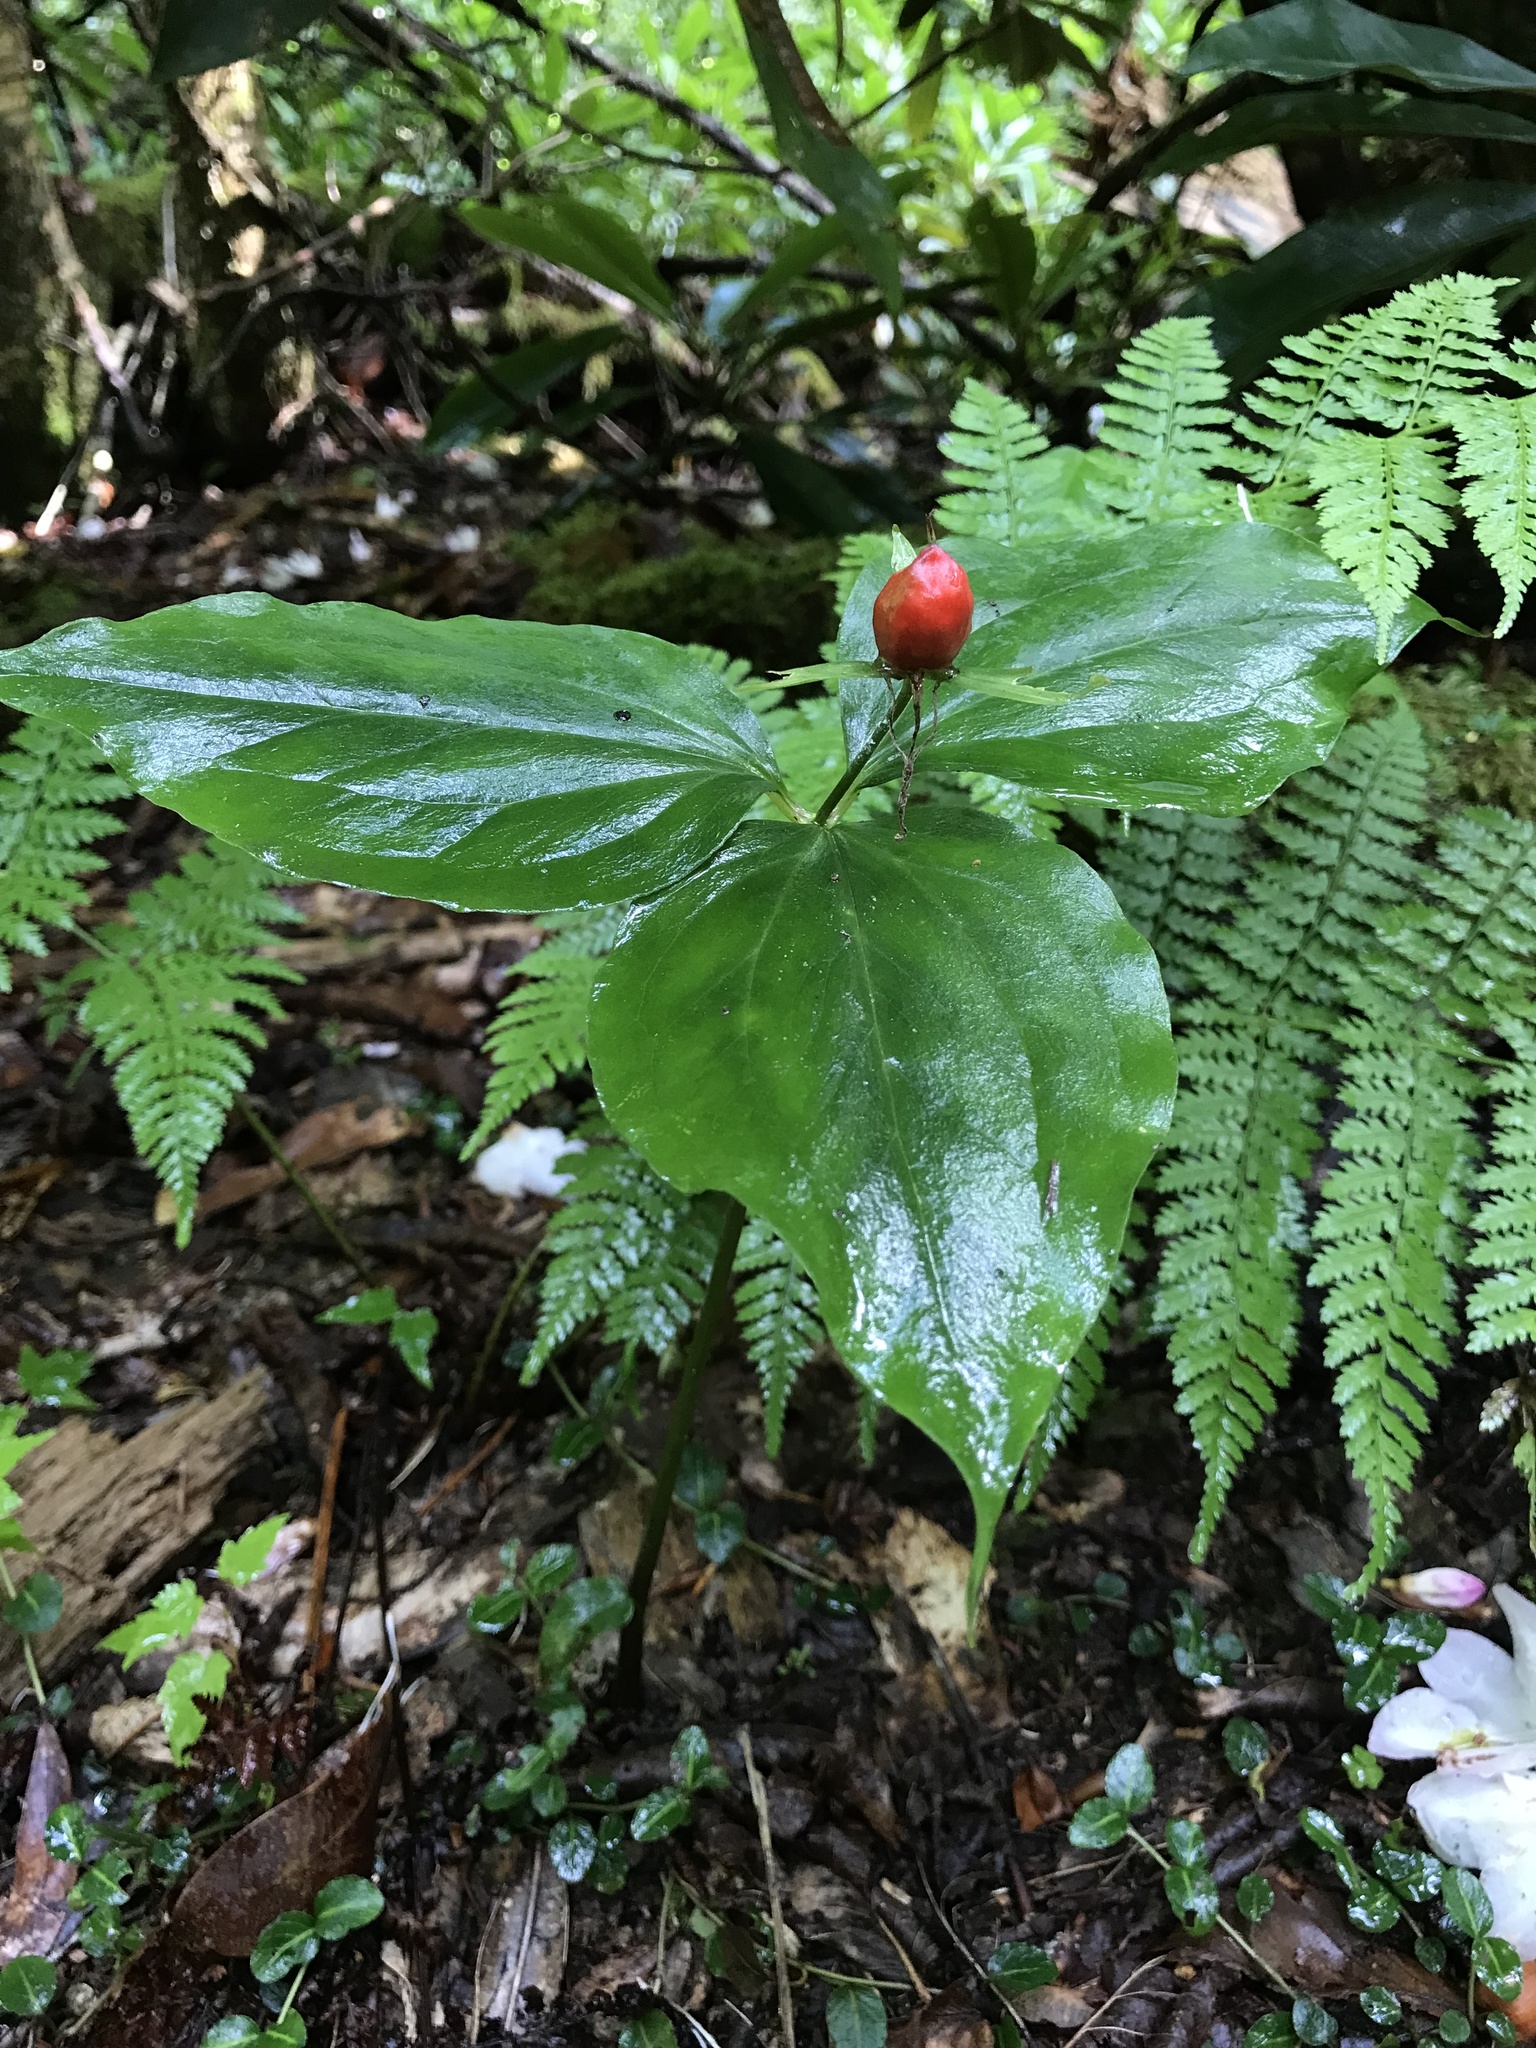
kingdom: Plantae
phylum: Tracheophyta
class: Liliopsida
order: Liliales
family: Melanthiaceae
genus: Trillium
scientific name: Trillium undulatum
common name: Paint trillium
